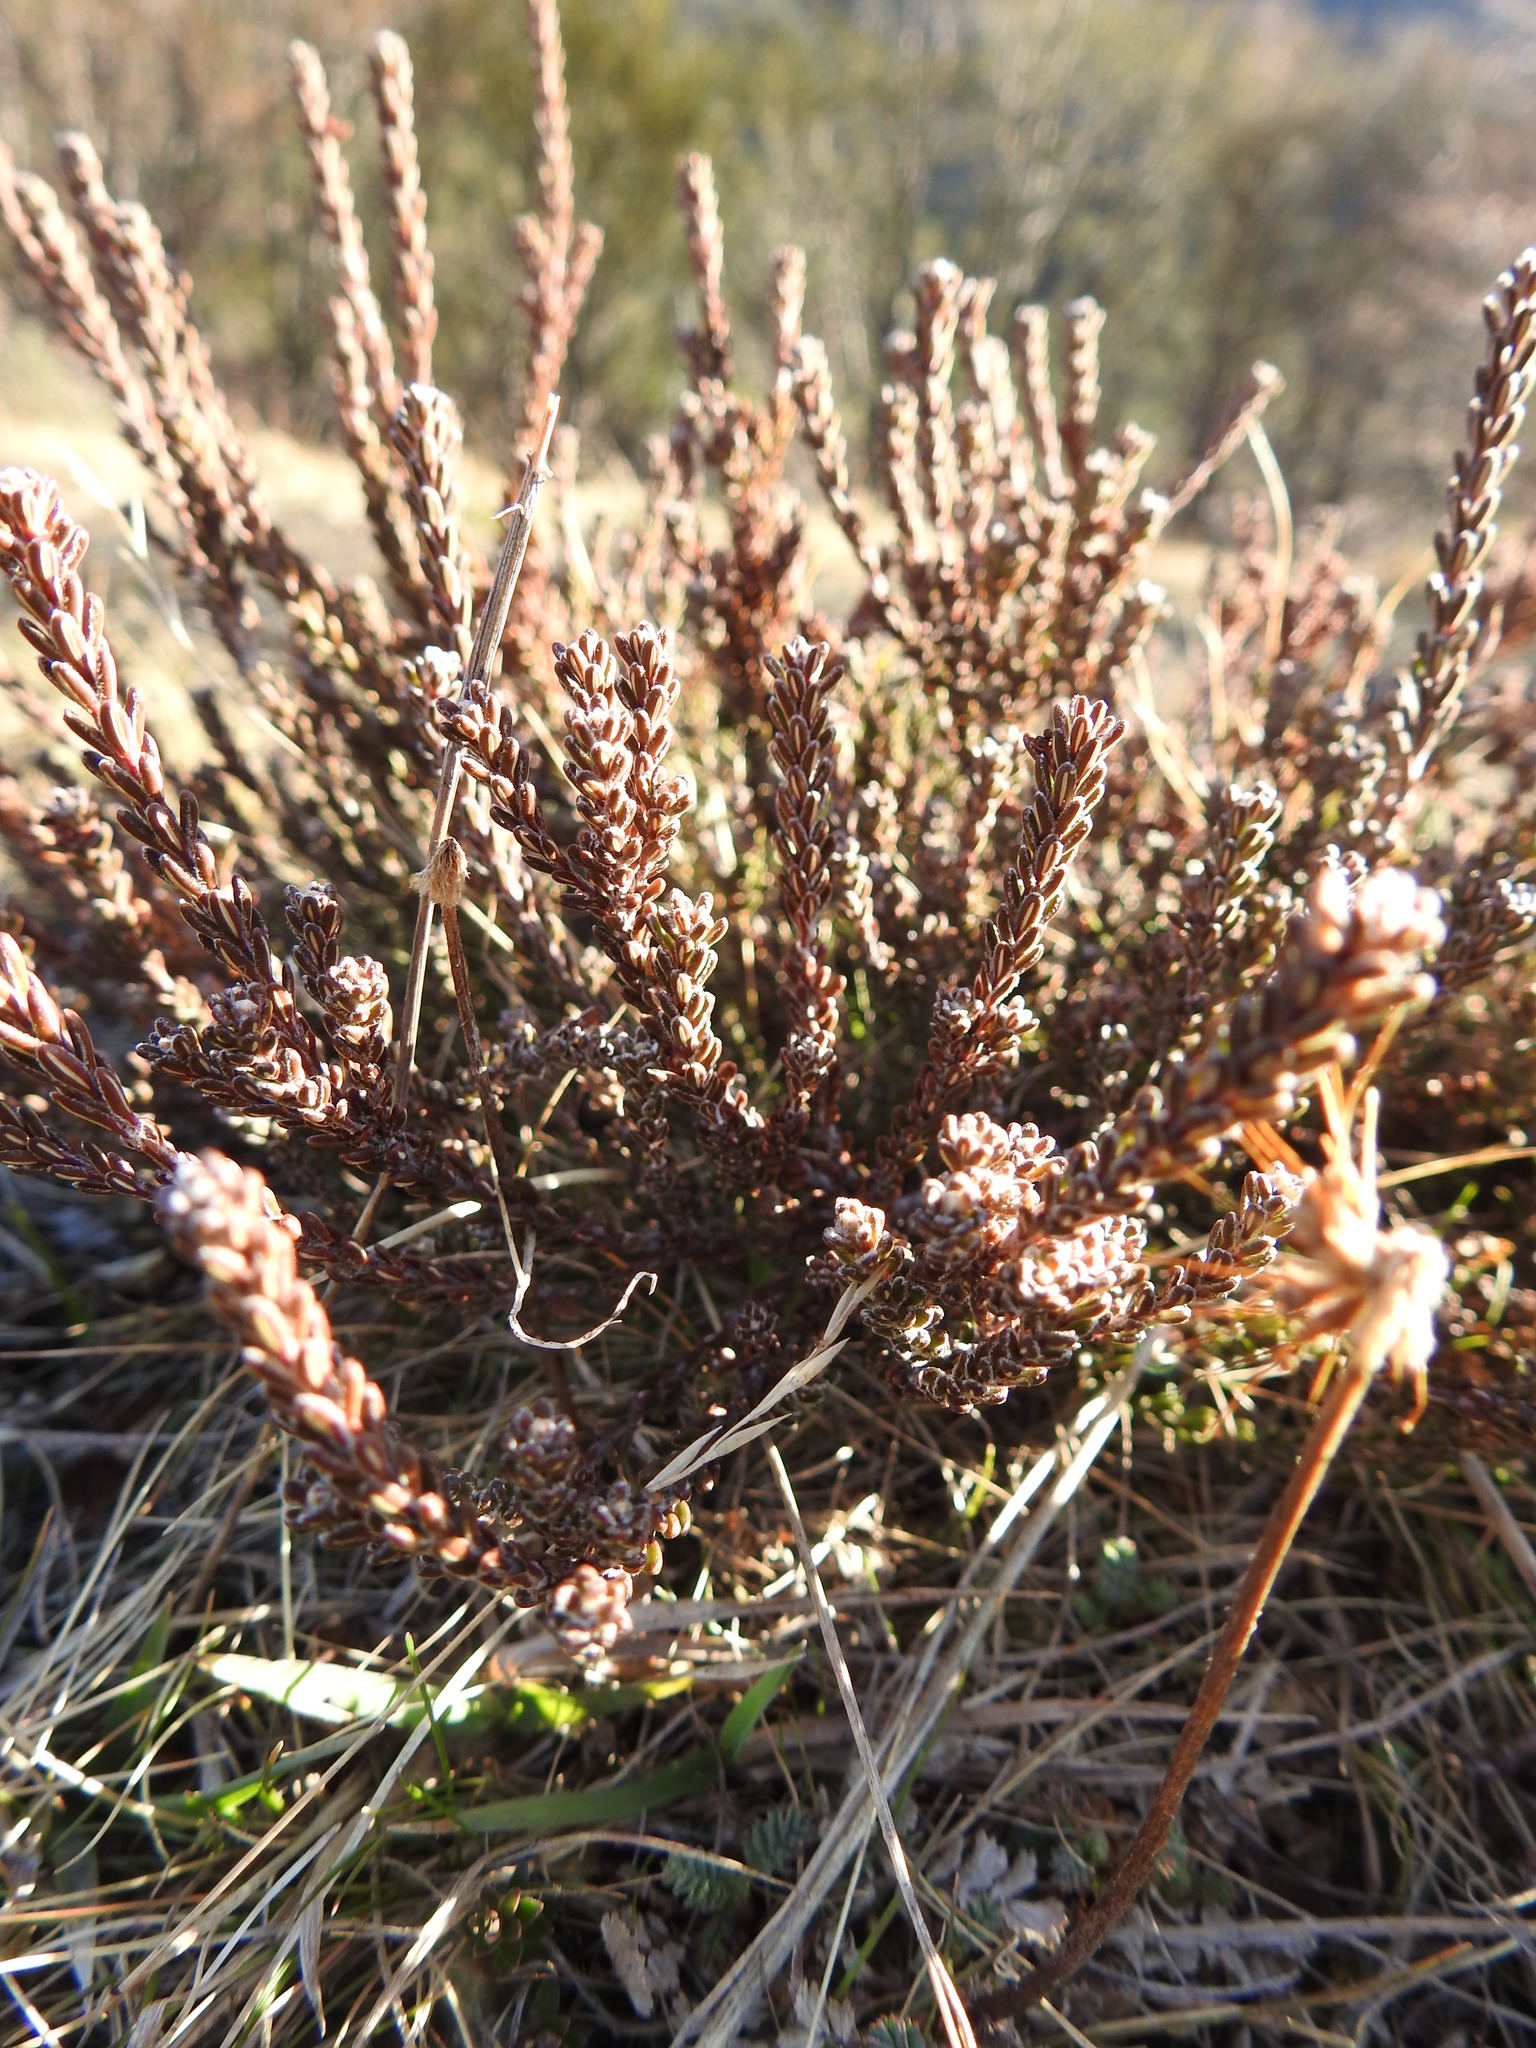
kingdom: Plantae
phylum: Tracheophyta
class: Magnoliopsida
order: Ericales
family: Ericaceae
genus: Empetrum
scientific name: Empetrum rubrum
